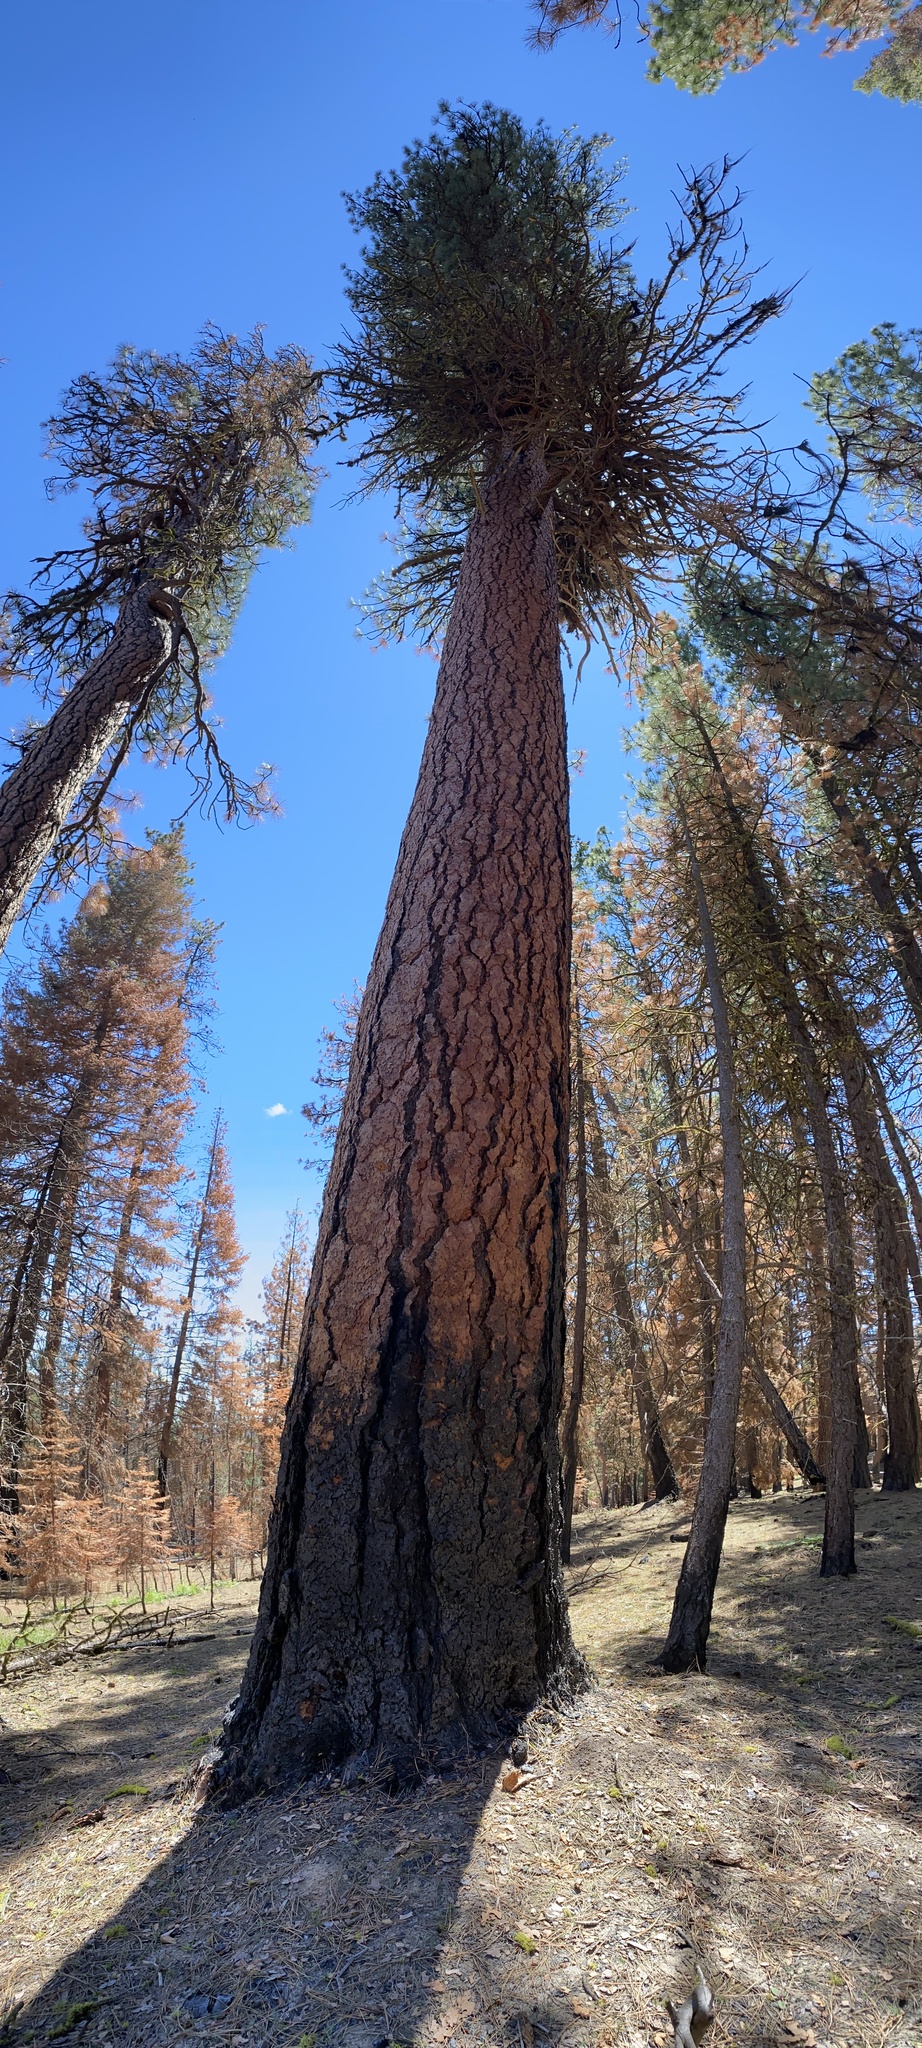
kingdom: Plantae
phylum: Tracheophyta
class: Pinopsida
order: Pinales
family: Pinaceae
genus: Pinus
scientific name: Pinus ponderosa
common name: Western yellow-pine
